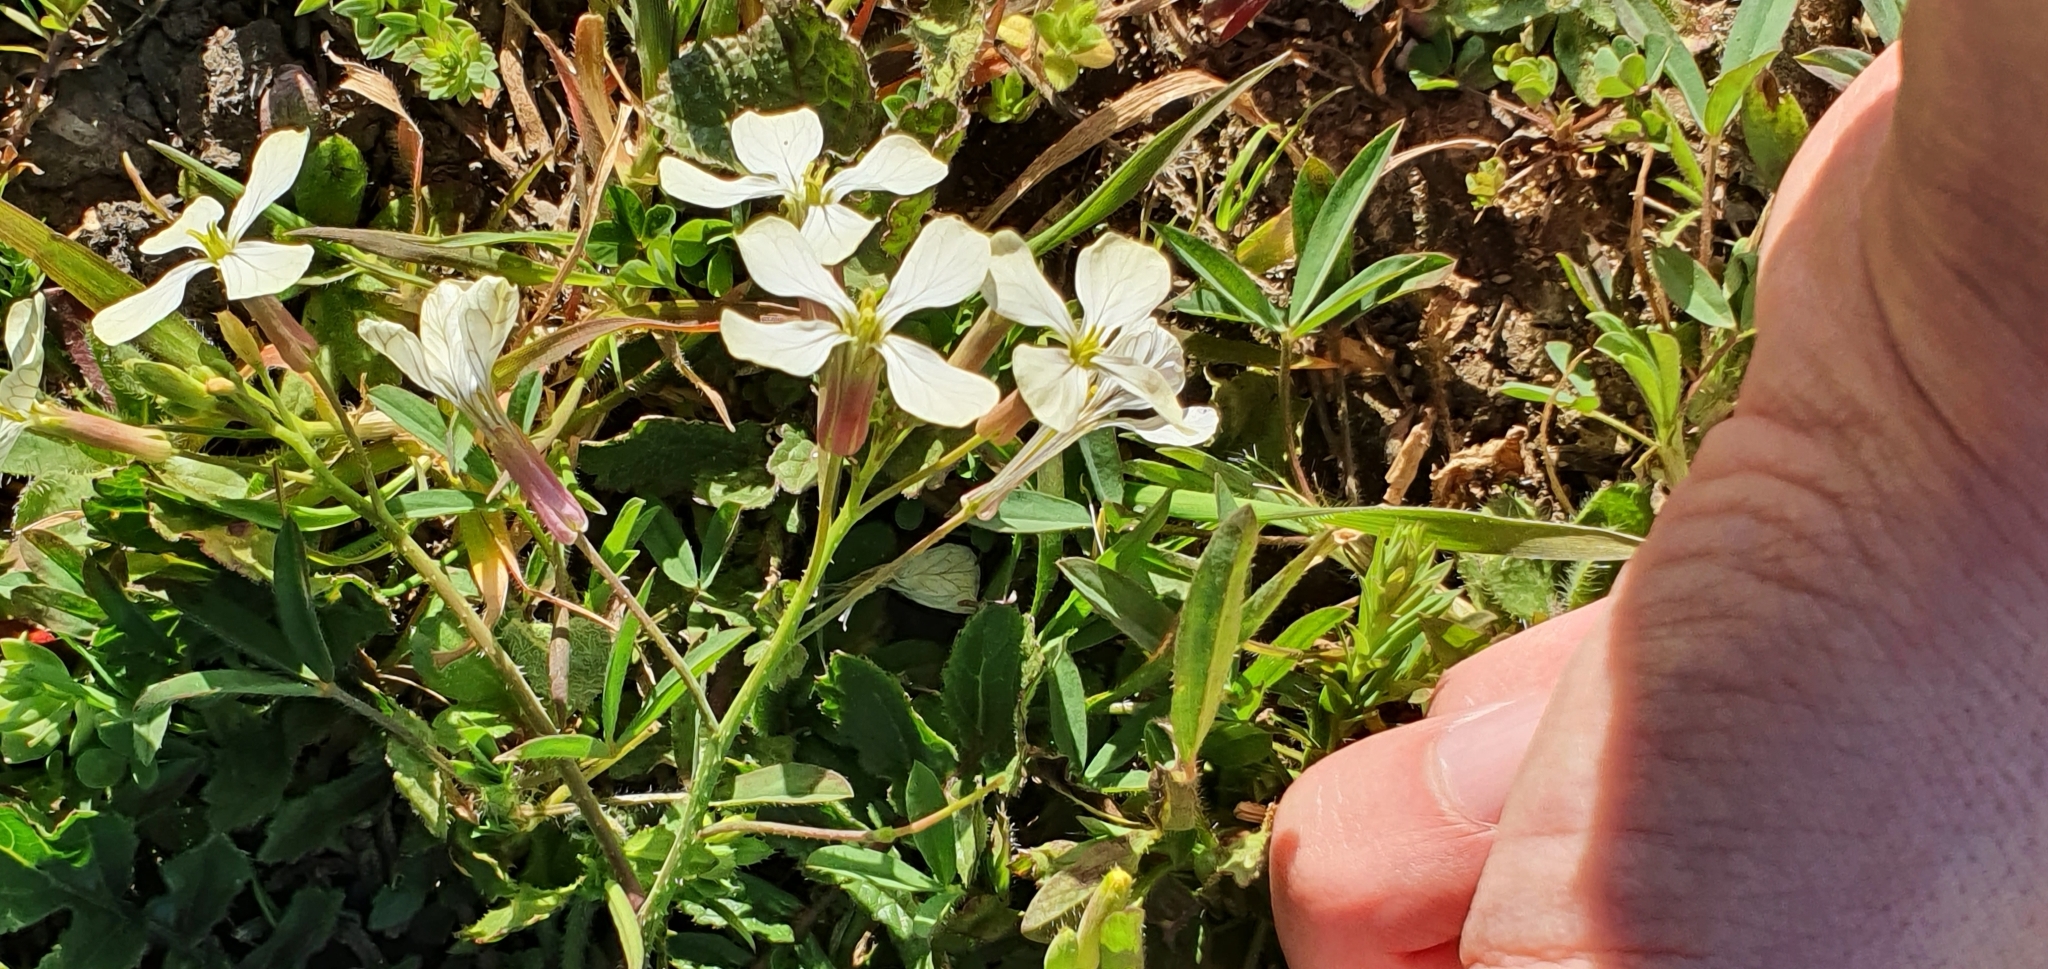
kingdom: Plantae
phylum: Tracheophyta
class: Magnoliopsida
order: Brassicales
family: Brassicaceae
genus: Raphanus
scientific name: Raphanus raphanistrum
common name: Wild radish
